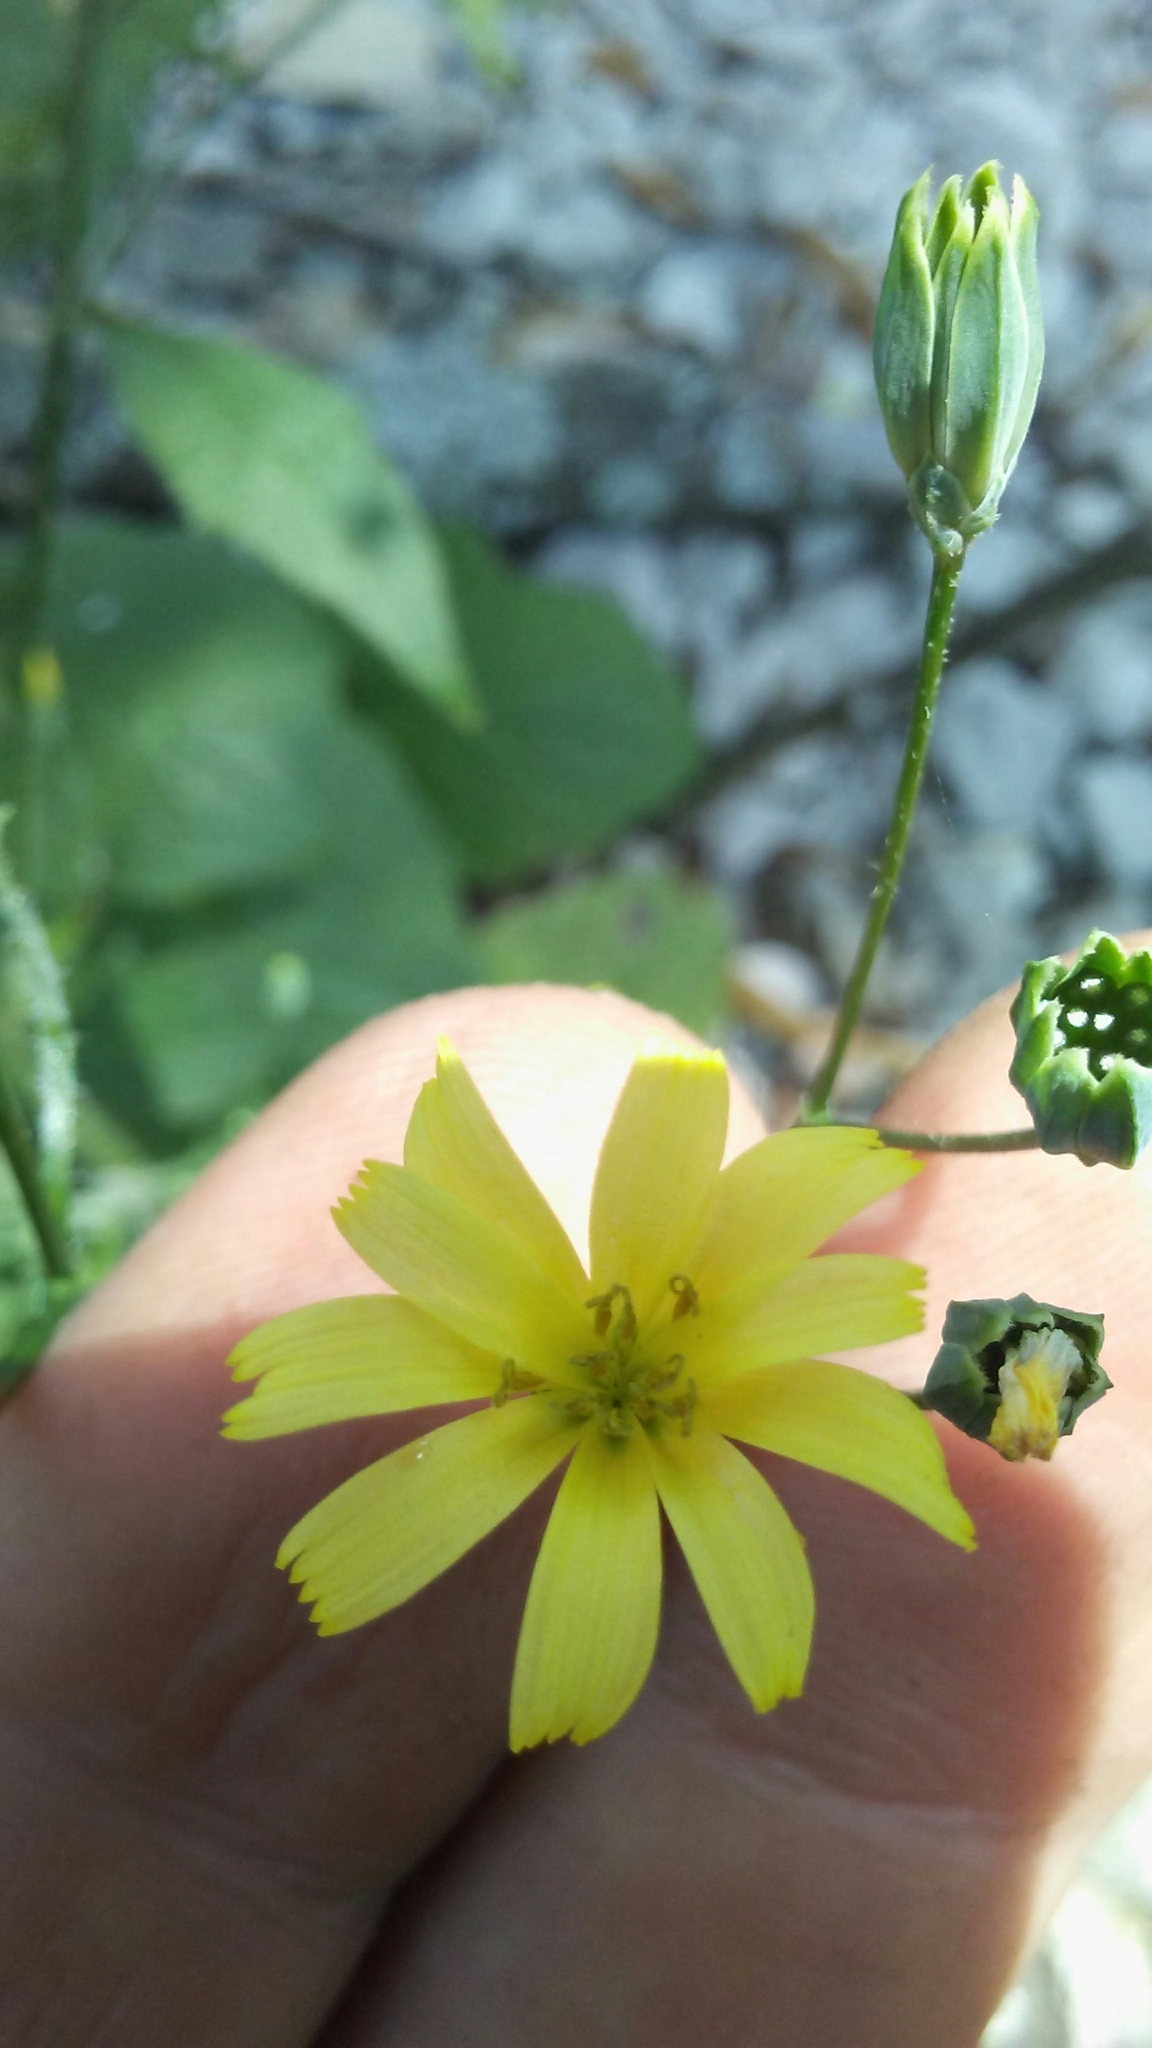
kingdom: Plantae
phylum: Tracheophyta
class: Magnoliopsida
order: Asterales
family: Asteraceae
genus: Lapsana
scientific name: Lapsana communis
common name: Nipplewort
